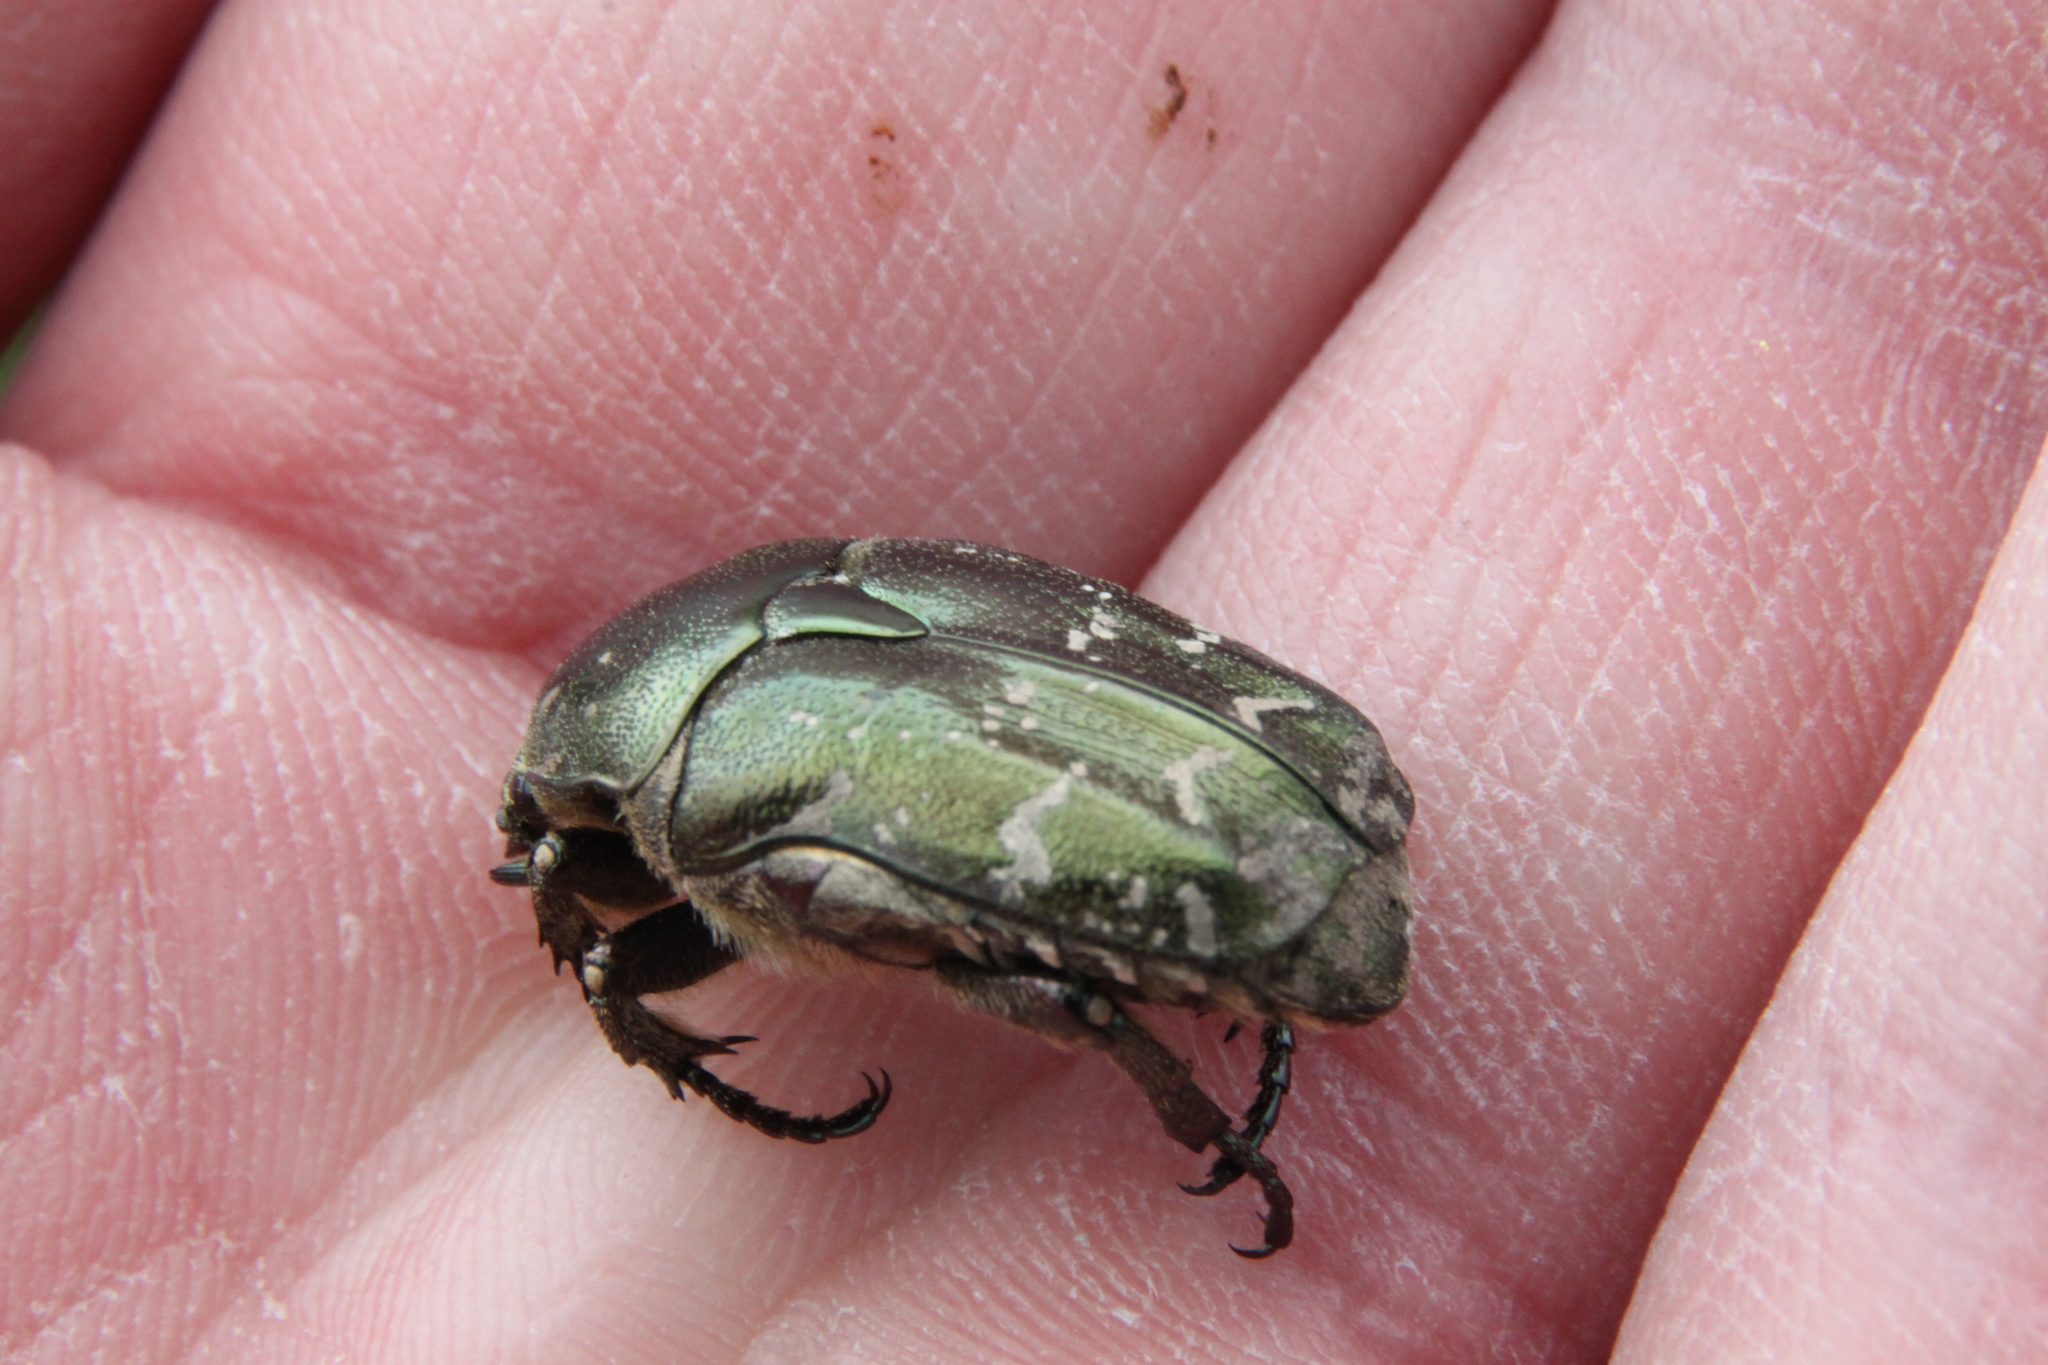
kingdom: Animalia
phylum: Arthropoda
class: Insecta
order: Coleoptera
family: Scarabaeidae
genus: Protaetia
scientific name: Protaetia cuprea
